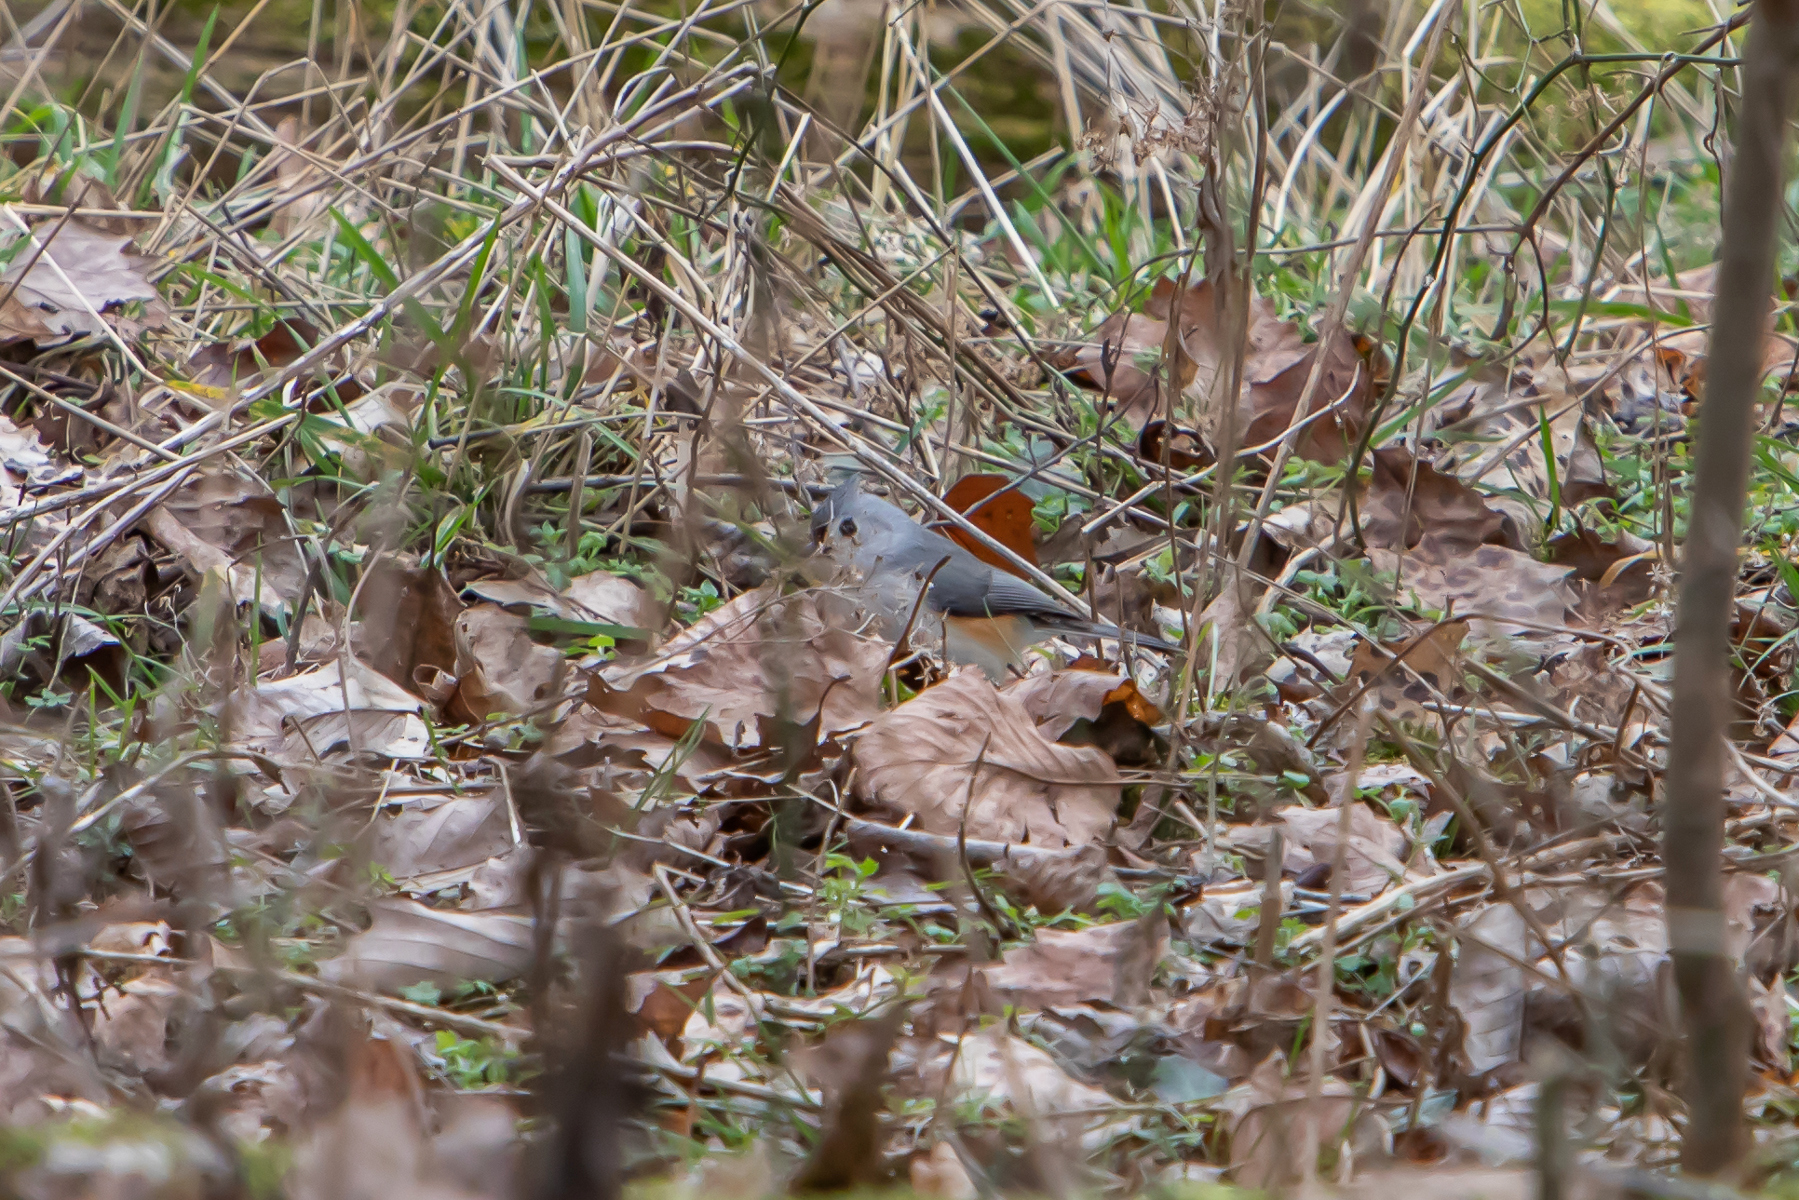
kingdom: Animalia
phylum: Chordata
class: Aves
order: Passeriformes
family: Paridae
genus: Baeolophus
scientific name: Baeolophus bicolor
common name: Tufted titmouse
